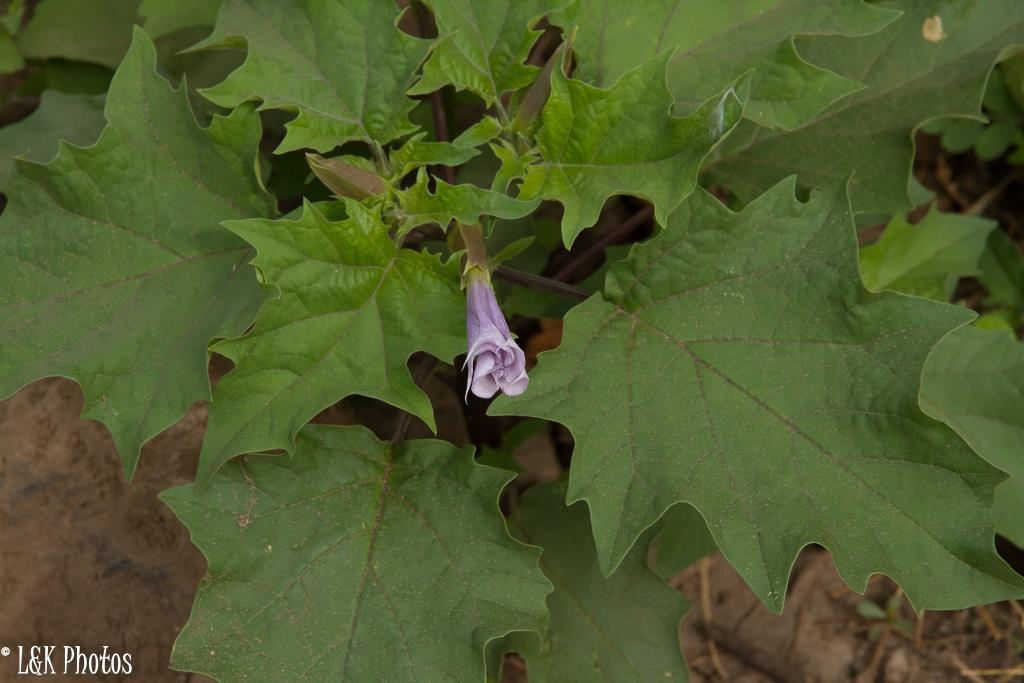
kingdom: Plantae
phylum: Tracheophyta
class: Magnoliopsida
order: Solanales
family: Solanaceae
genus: Datura
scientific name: Datura stramonium
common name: Thorn-apple
